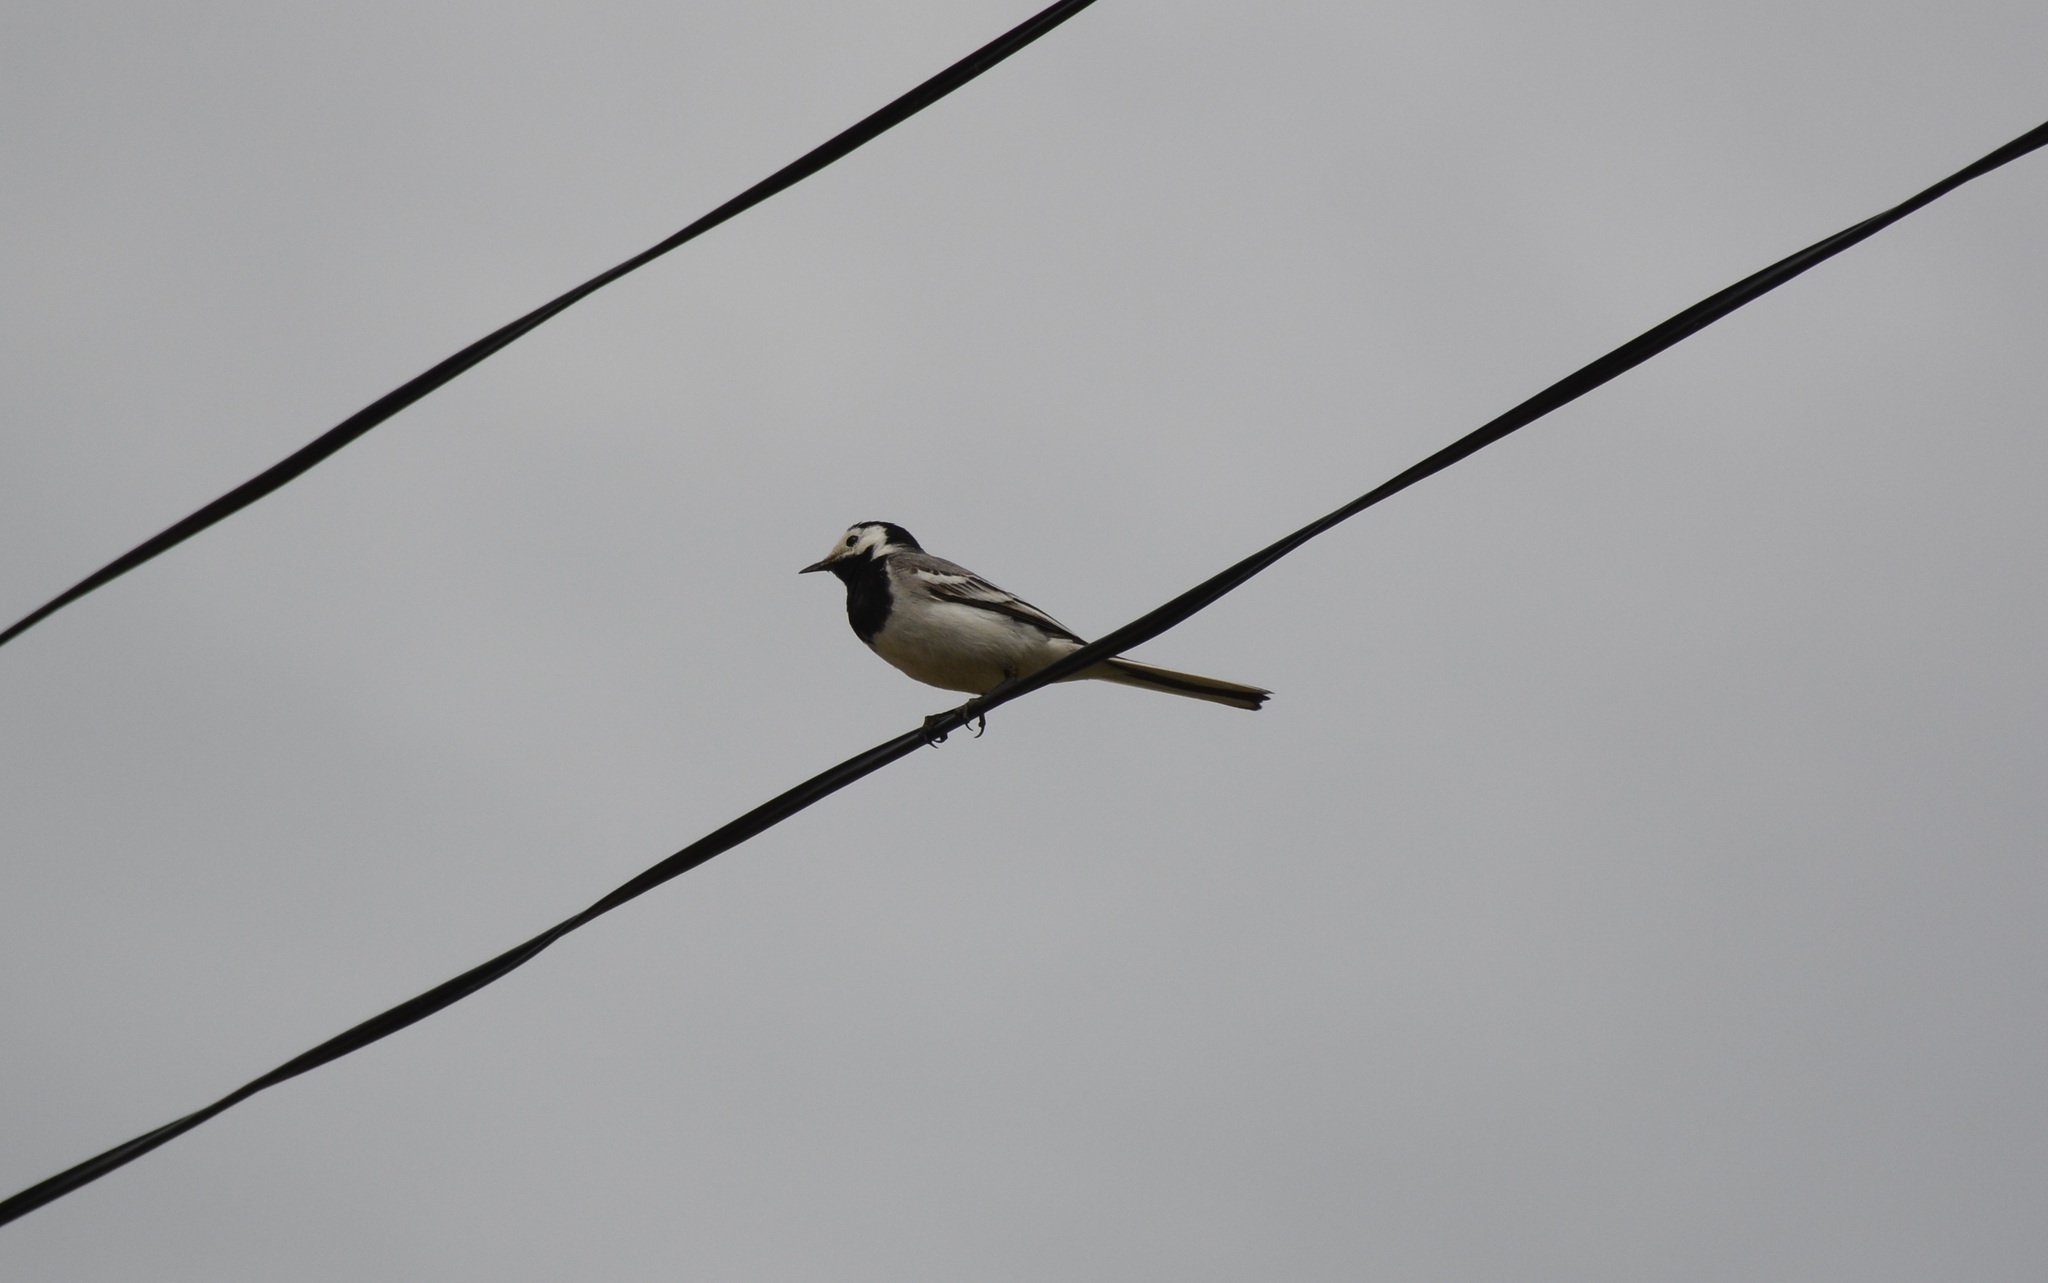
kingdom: Animalia
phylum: Chordata
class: Aves
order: Passeriformes
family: Motacillidae
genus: Motacilla
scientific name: Motacilla alba
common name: White wagtail
